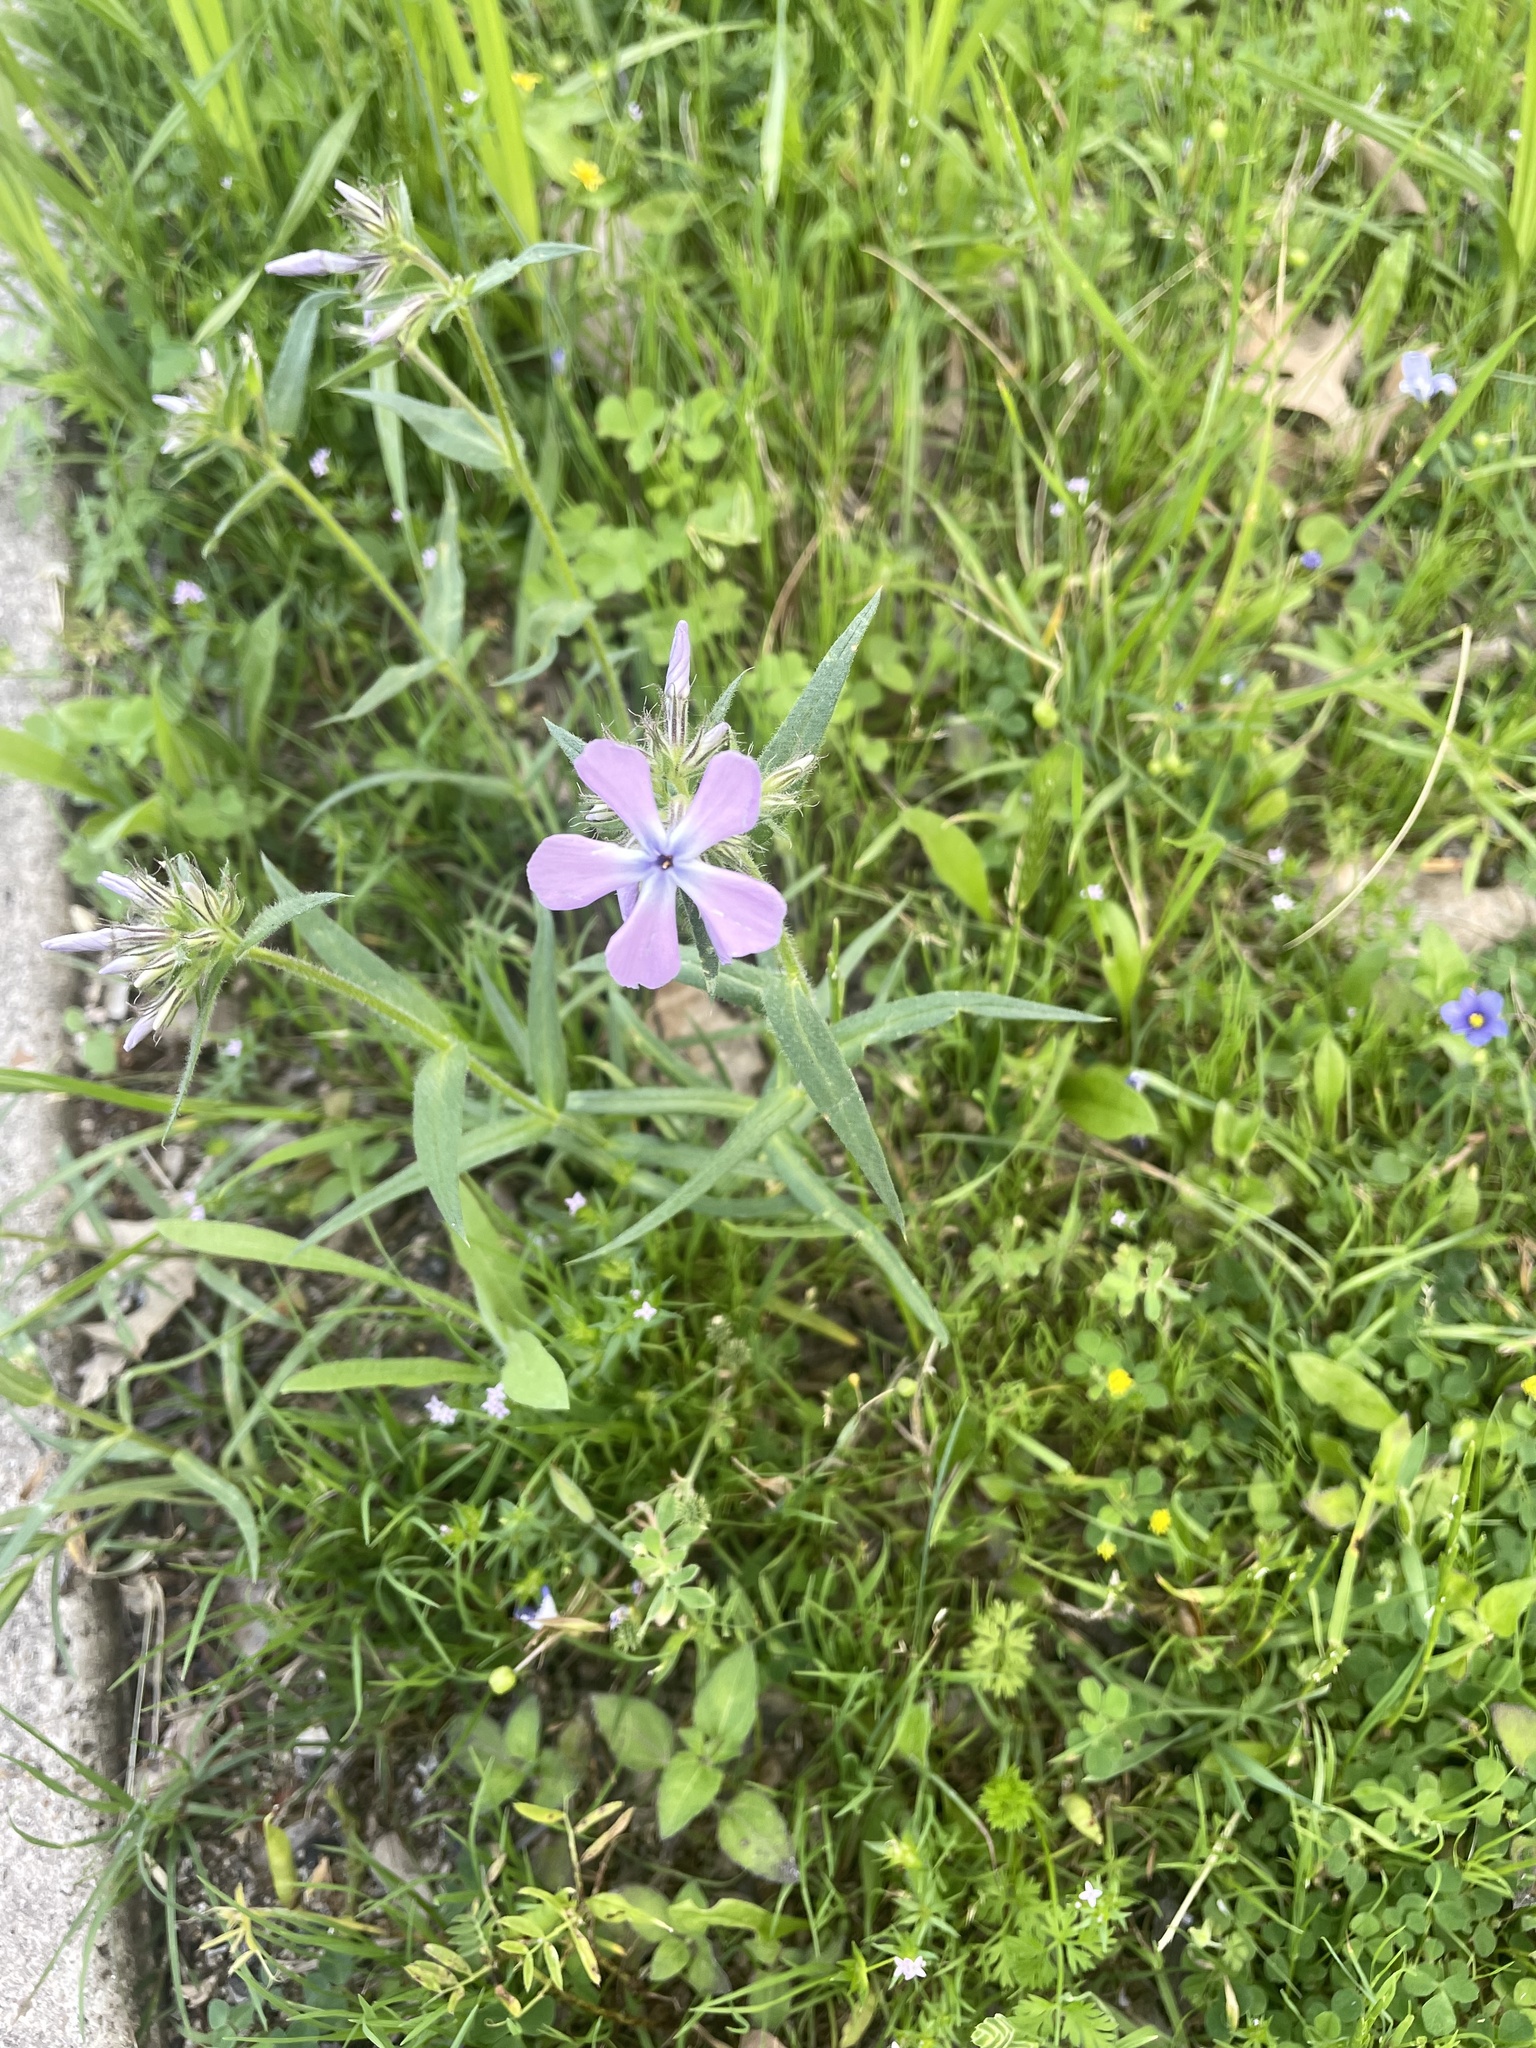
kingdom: Plantae
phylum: Tracheophyta
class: Magnoliopsida
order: Ericales
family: Polemoniaceae
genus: Phlox
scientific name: Phlox pilosa
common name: Prairie phlox
